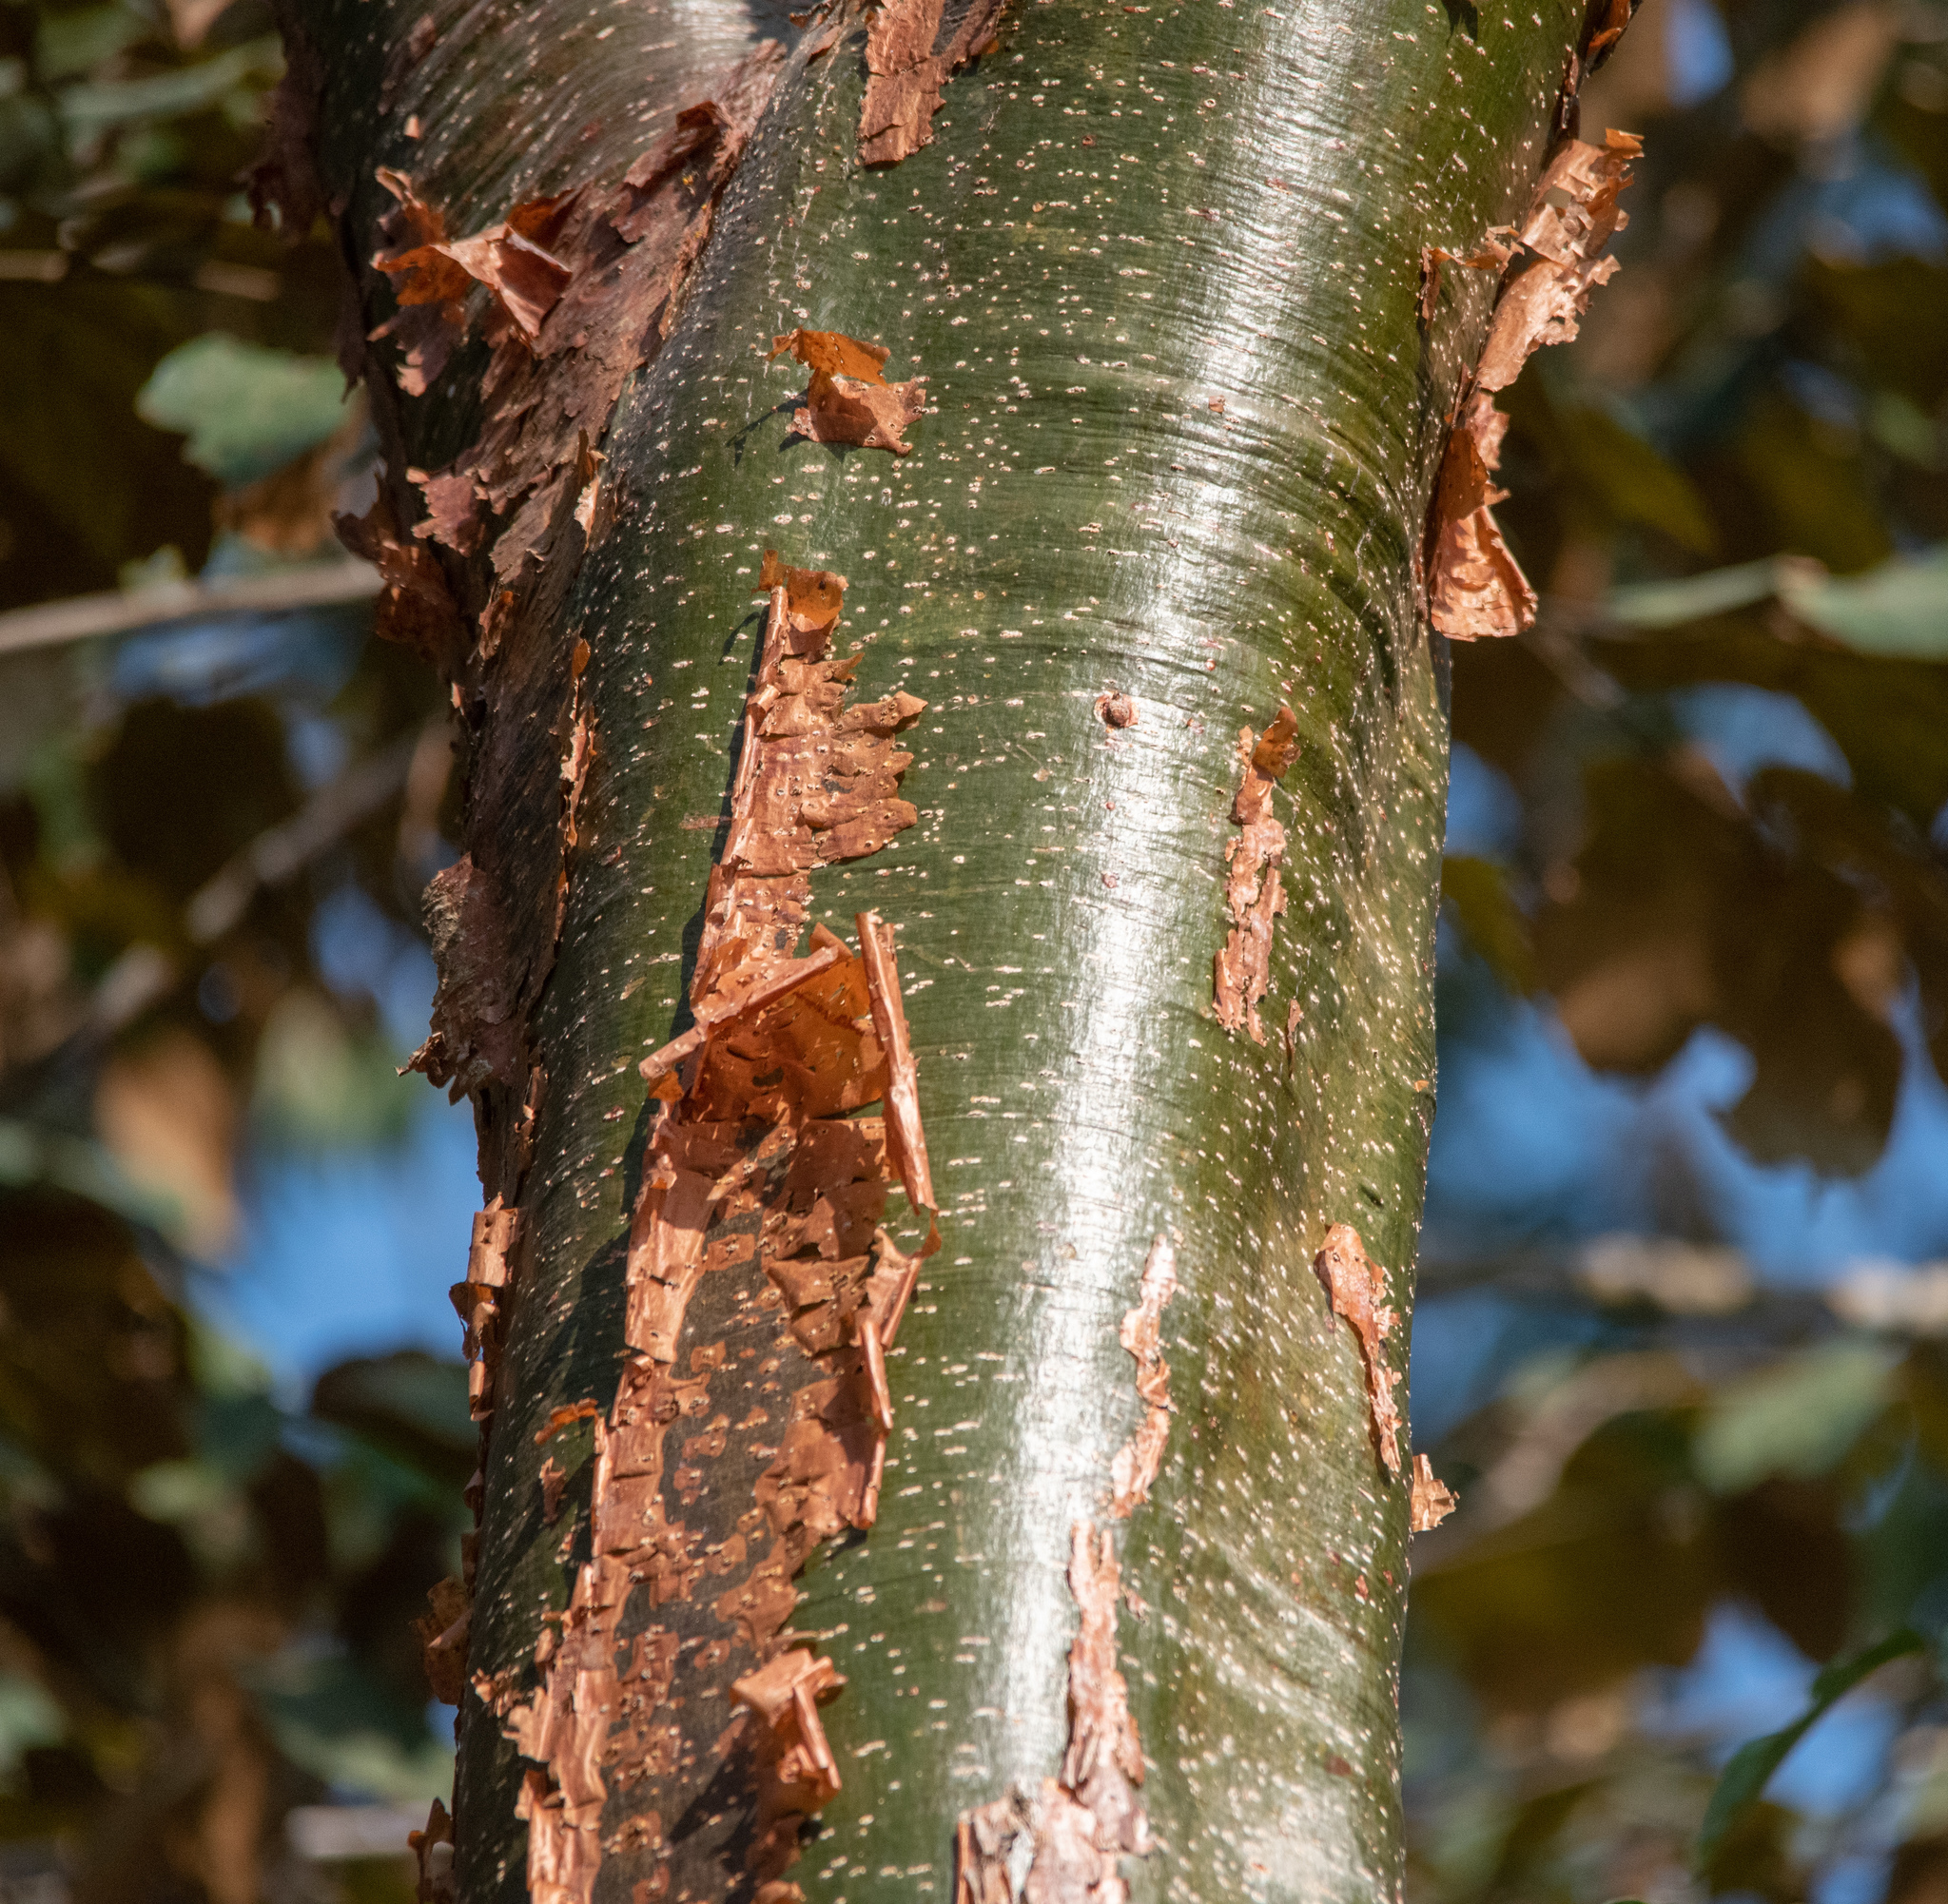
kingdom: Plantae
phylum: Tracheophyta
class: Magnoliopsida
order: Sapindales
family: Burseraceae
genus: Bursera
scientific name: Bursera simaruba
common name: Turpentine tree
